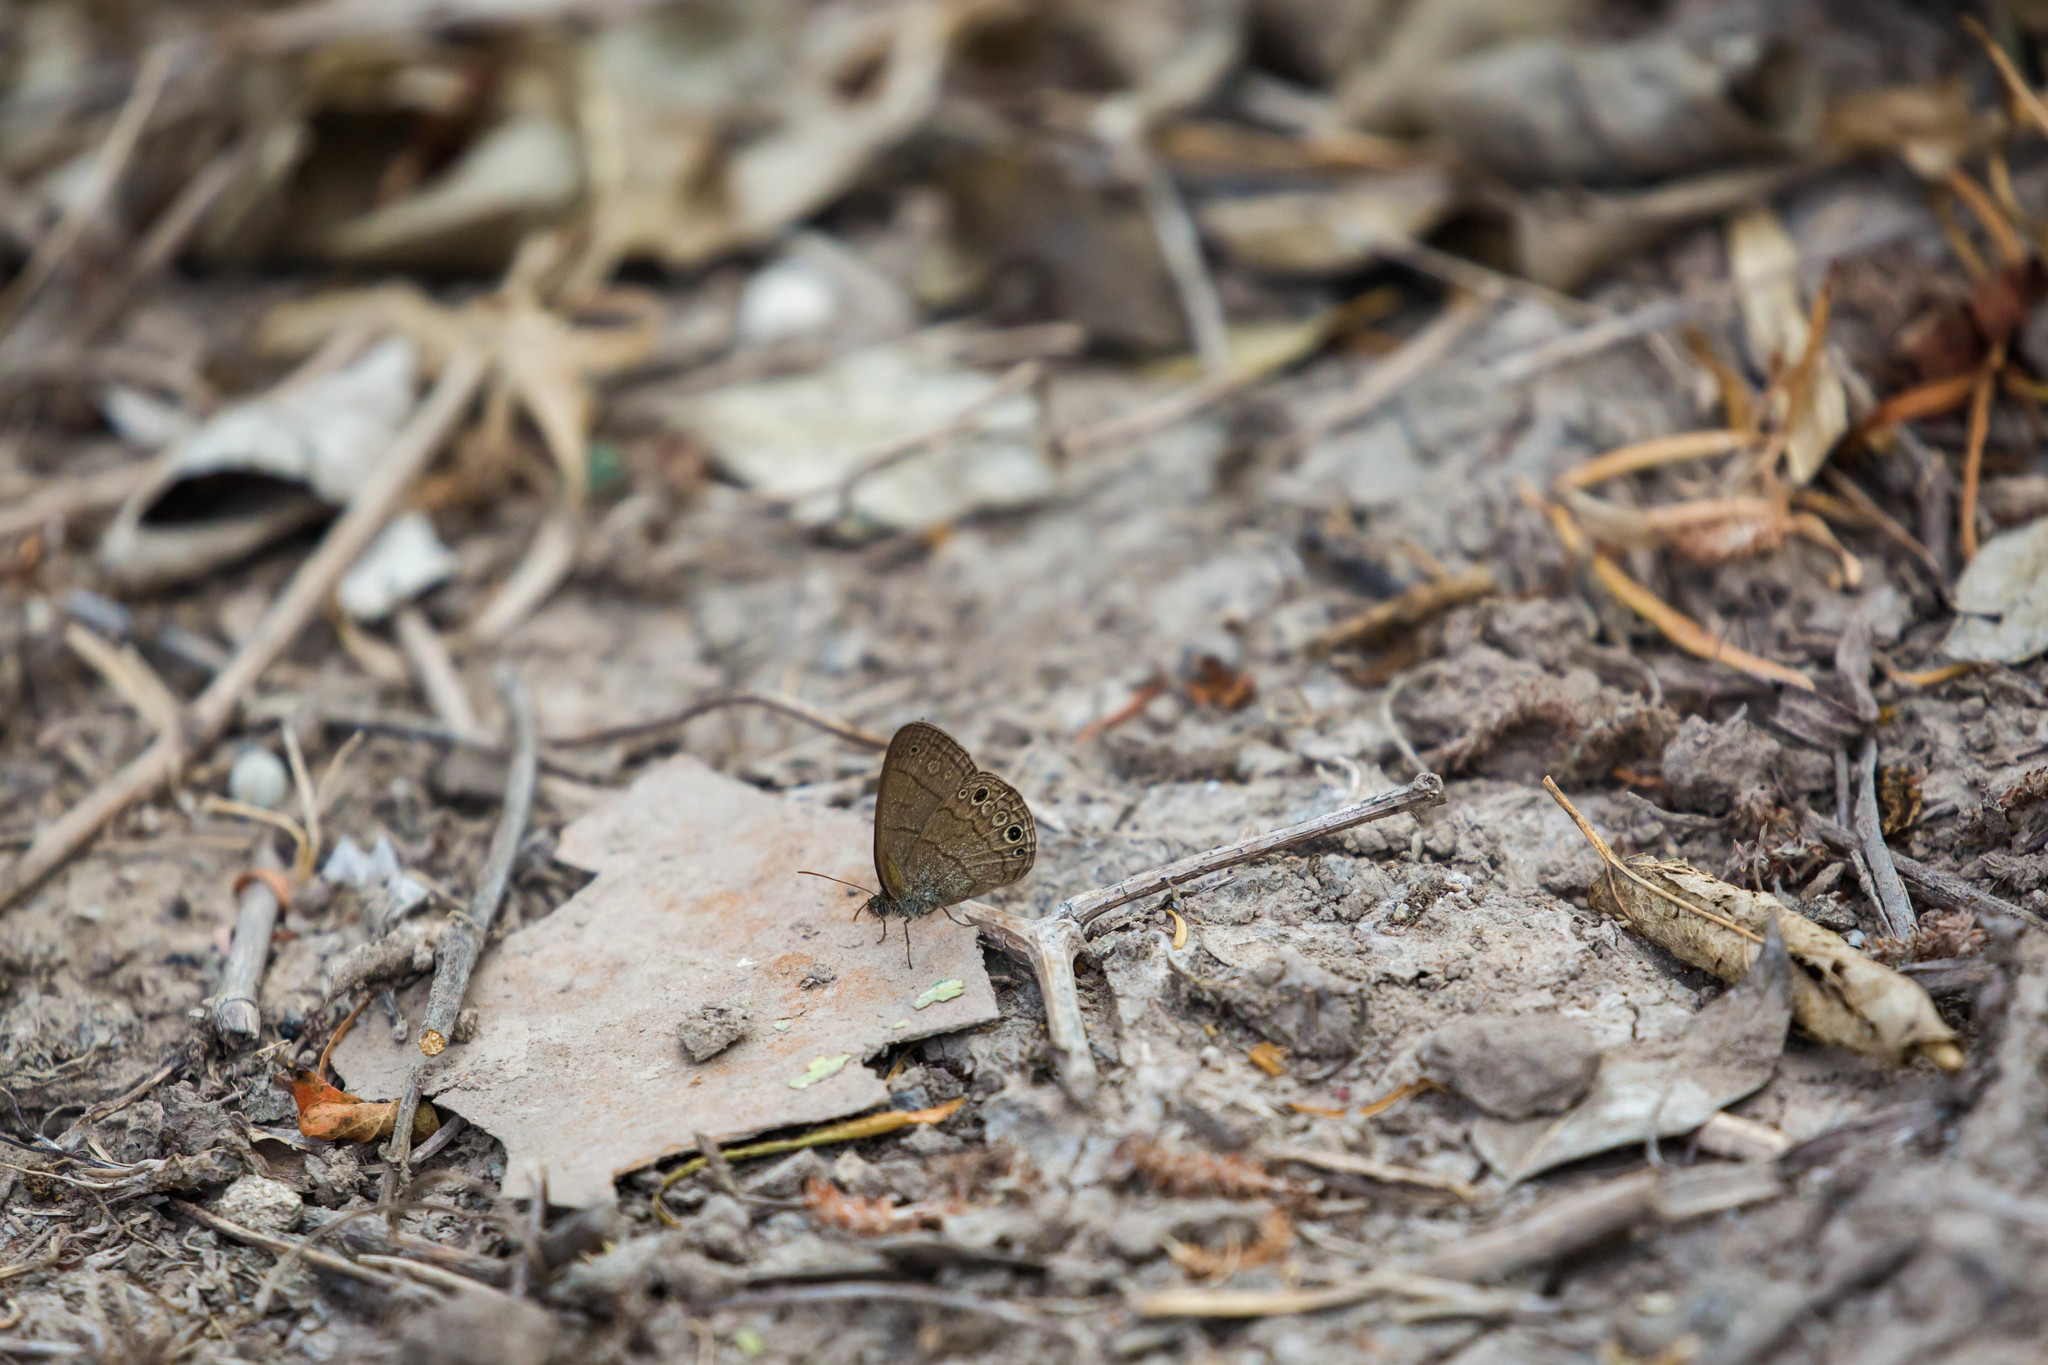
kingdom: Animalia
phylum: Arthropoda
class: Insecta
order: Lepidoptera
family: Nymphalidae
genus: Hermeuptychia
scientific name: Hermeuptychia hermybius
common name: South texas satyr
